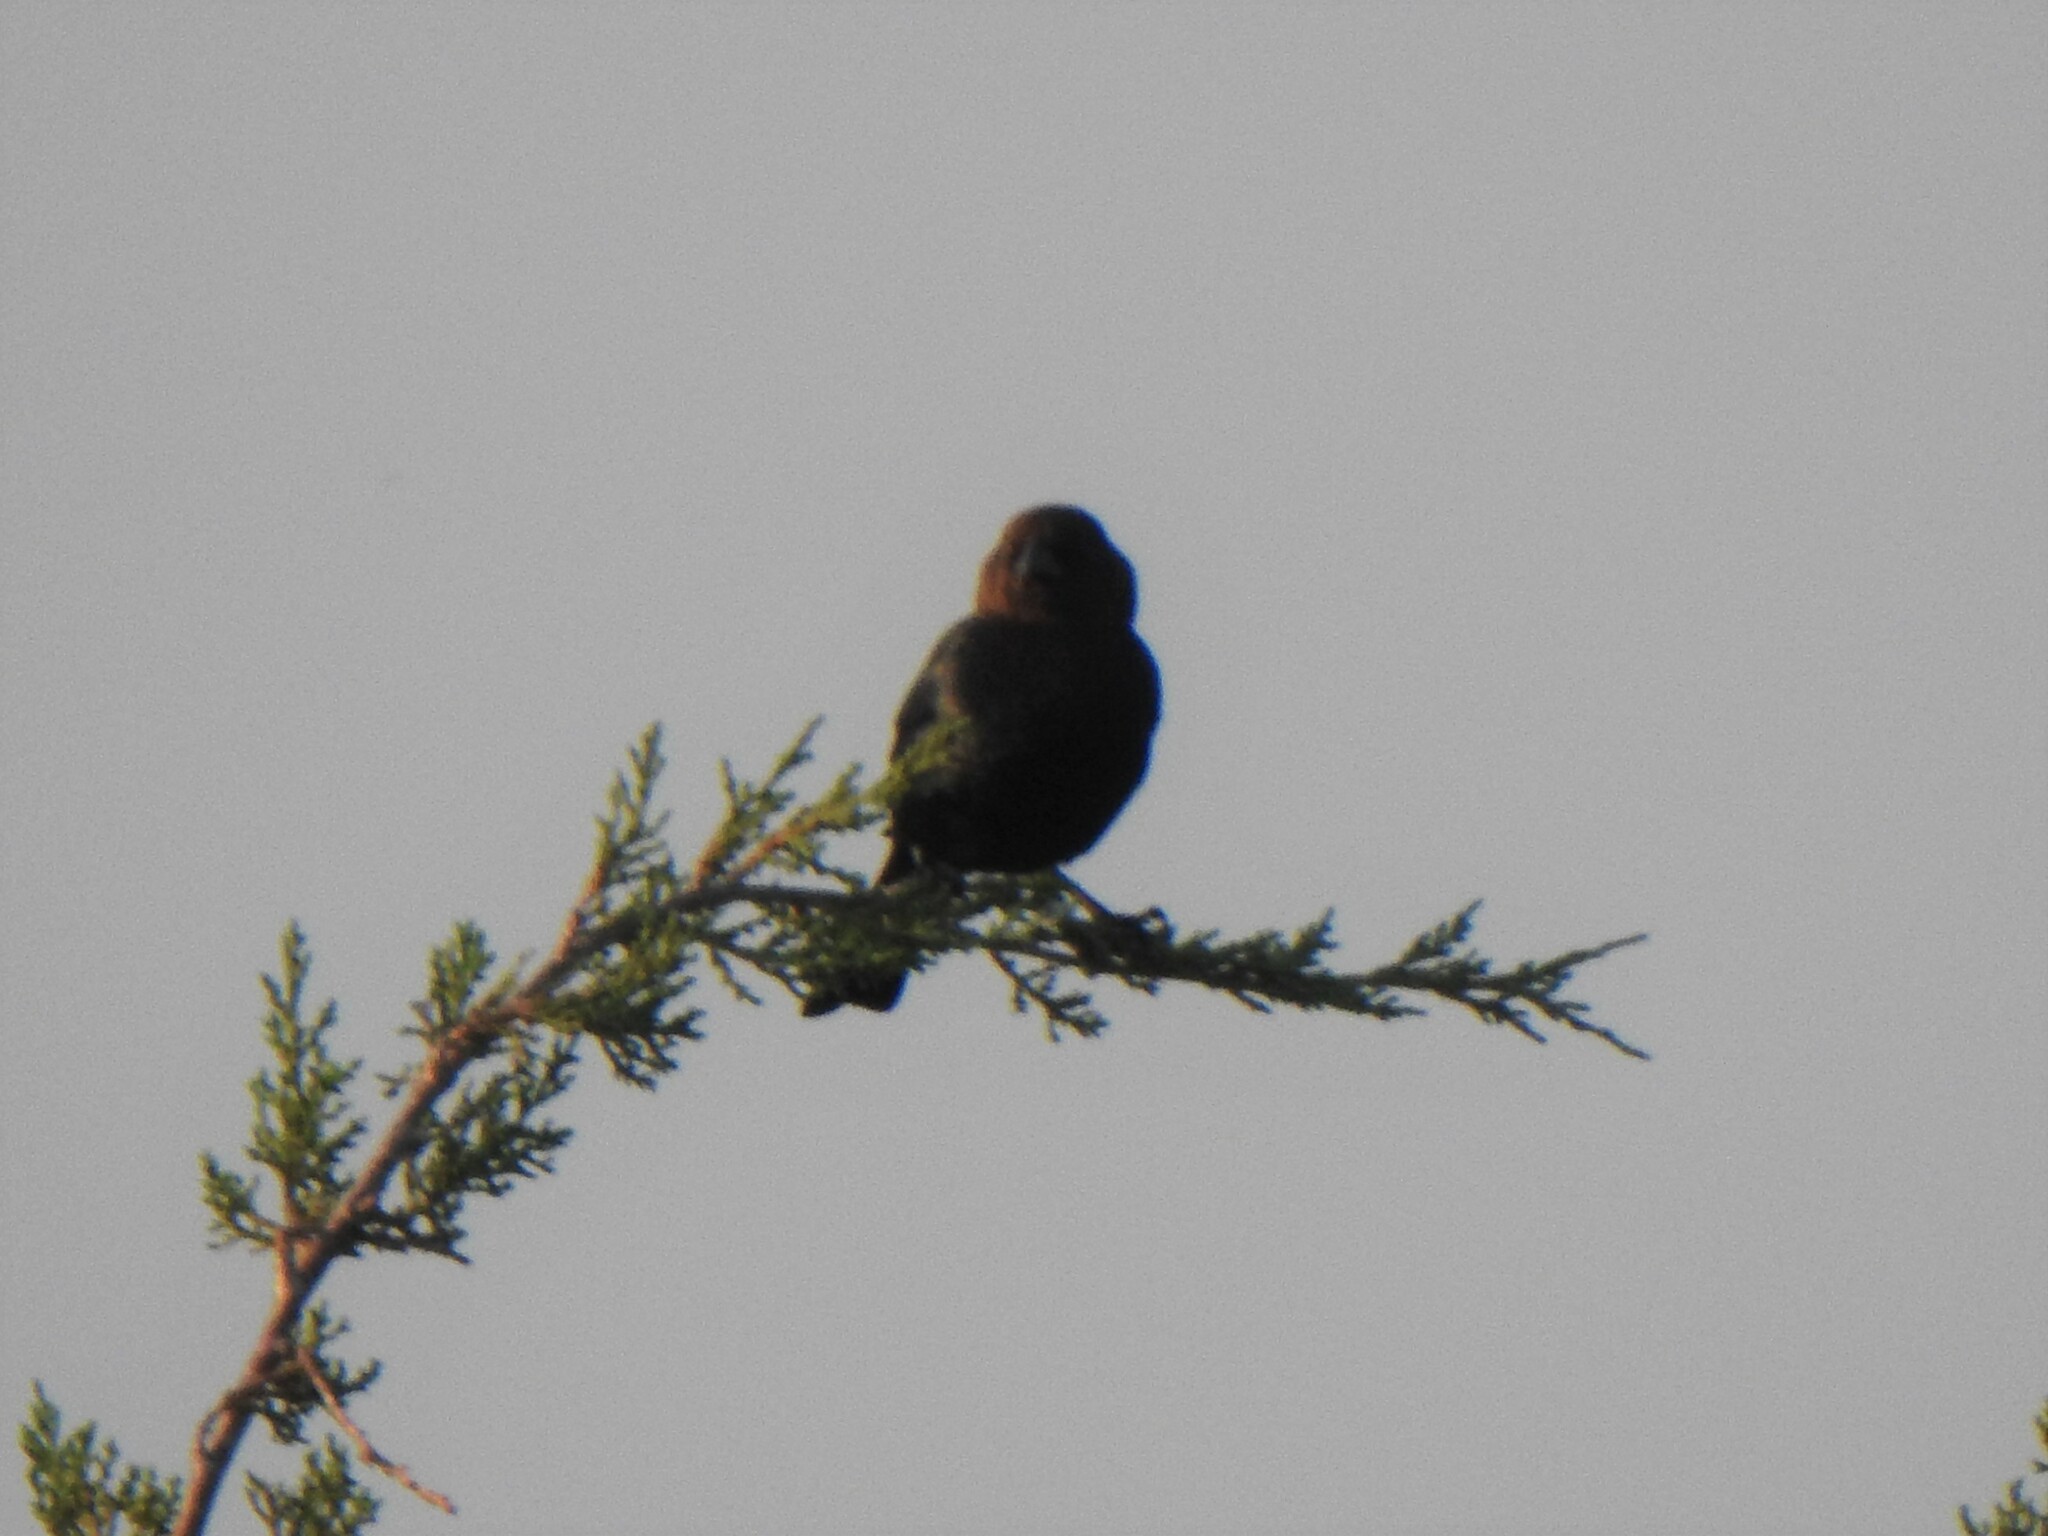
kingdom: Animalia
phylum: Chordata
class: Aves
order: Passeriformes
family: Icteridae
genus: Molothrus
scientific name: Molothrus ater
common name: Brown-headed cowbird
